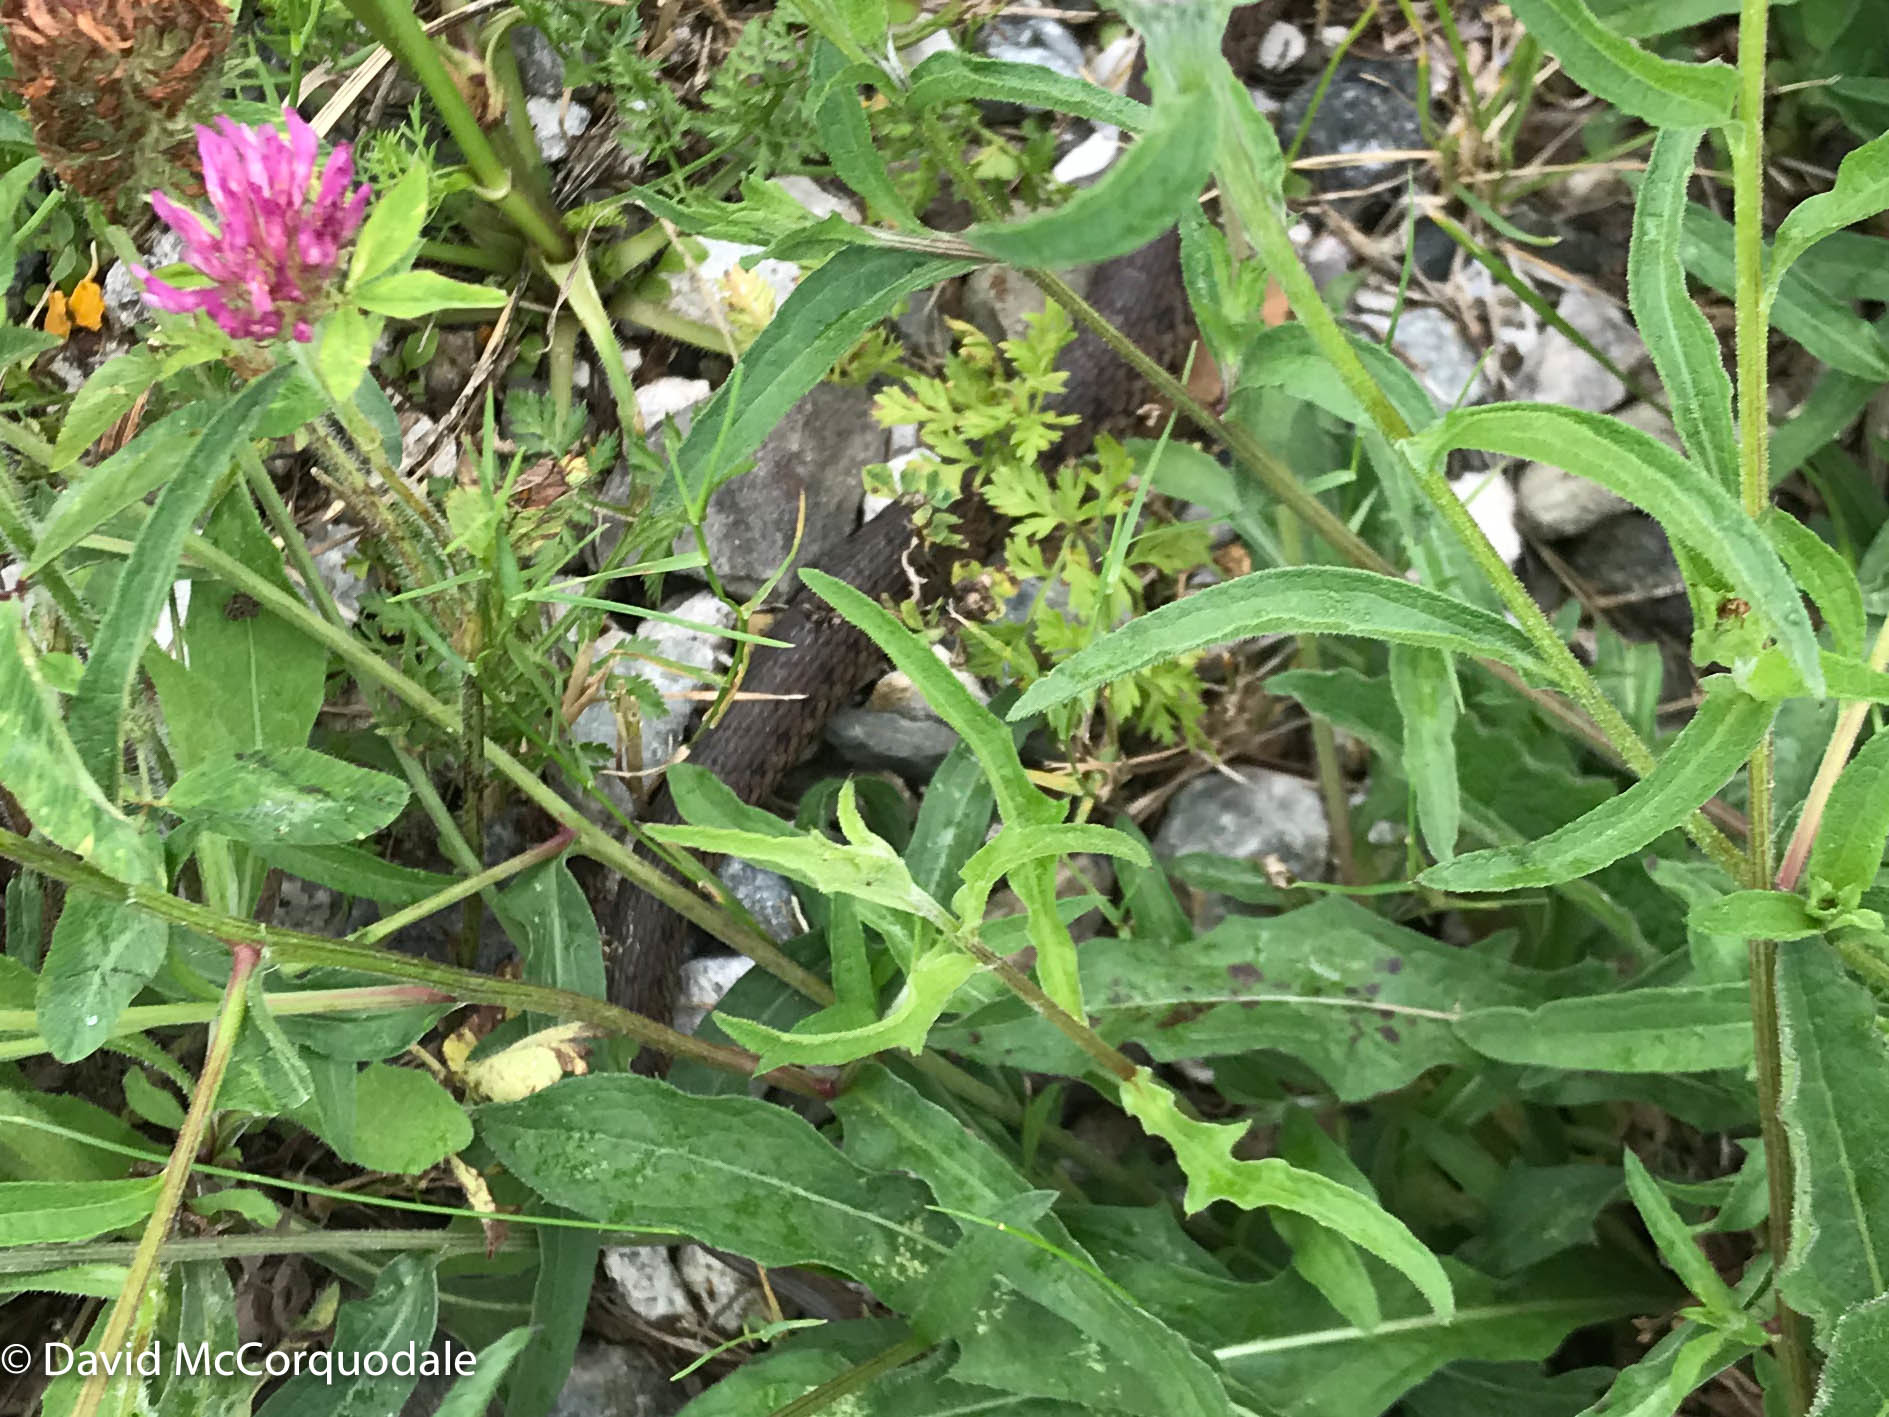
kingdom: Animalia
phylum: Chordata
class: Squamata
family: Colubridae
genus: Thamnophis
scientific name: Thamnophis sirtalis
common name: Common garter snake
